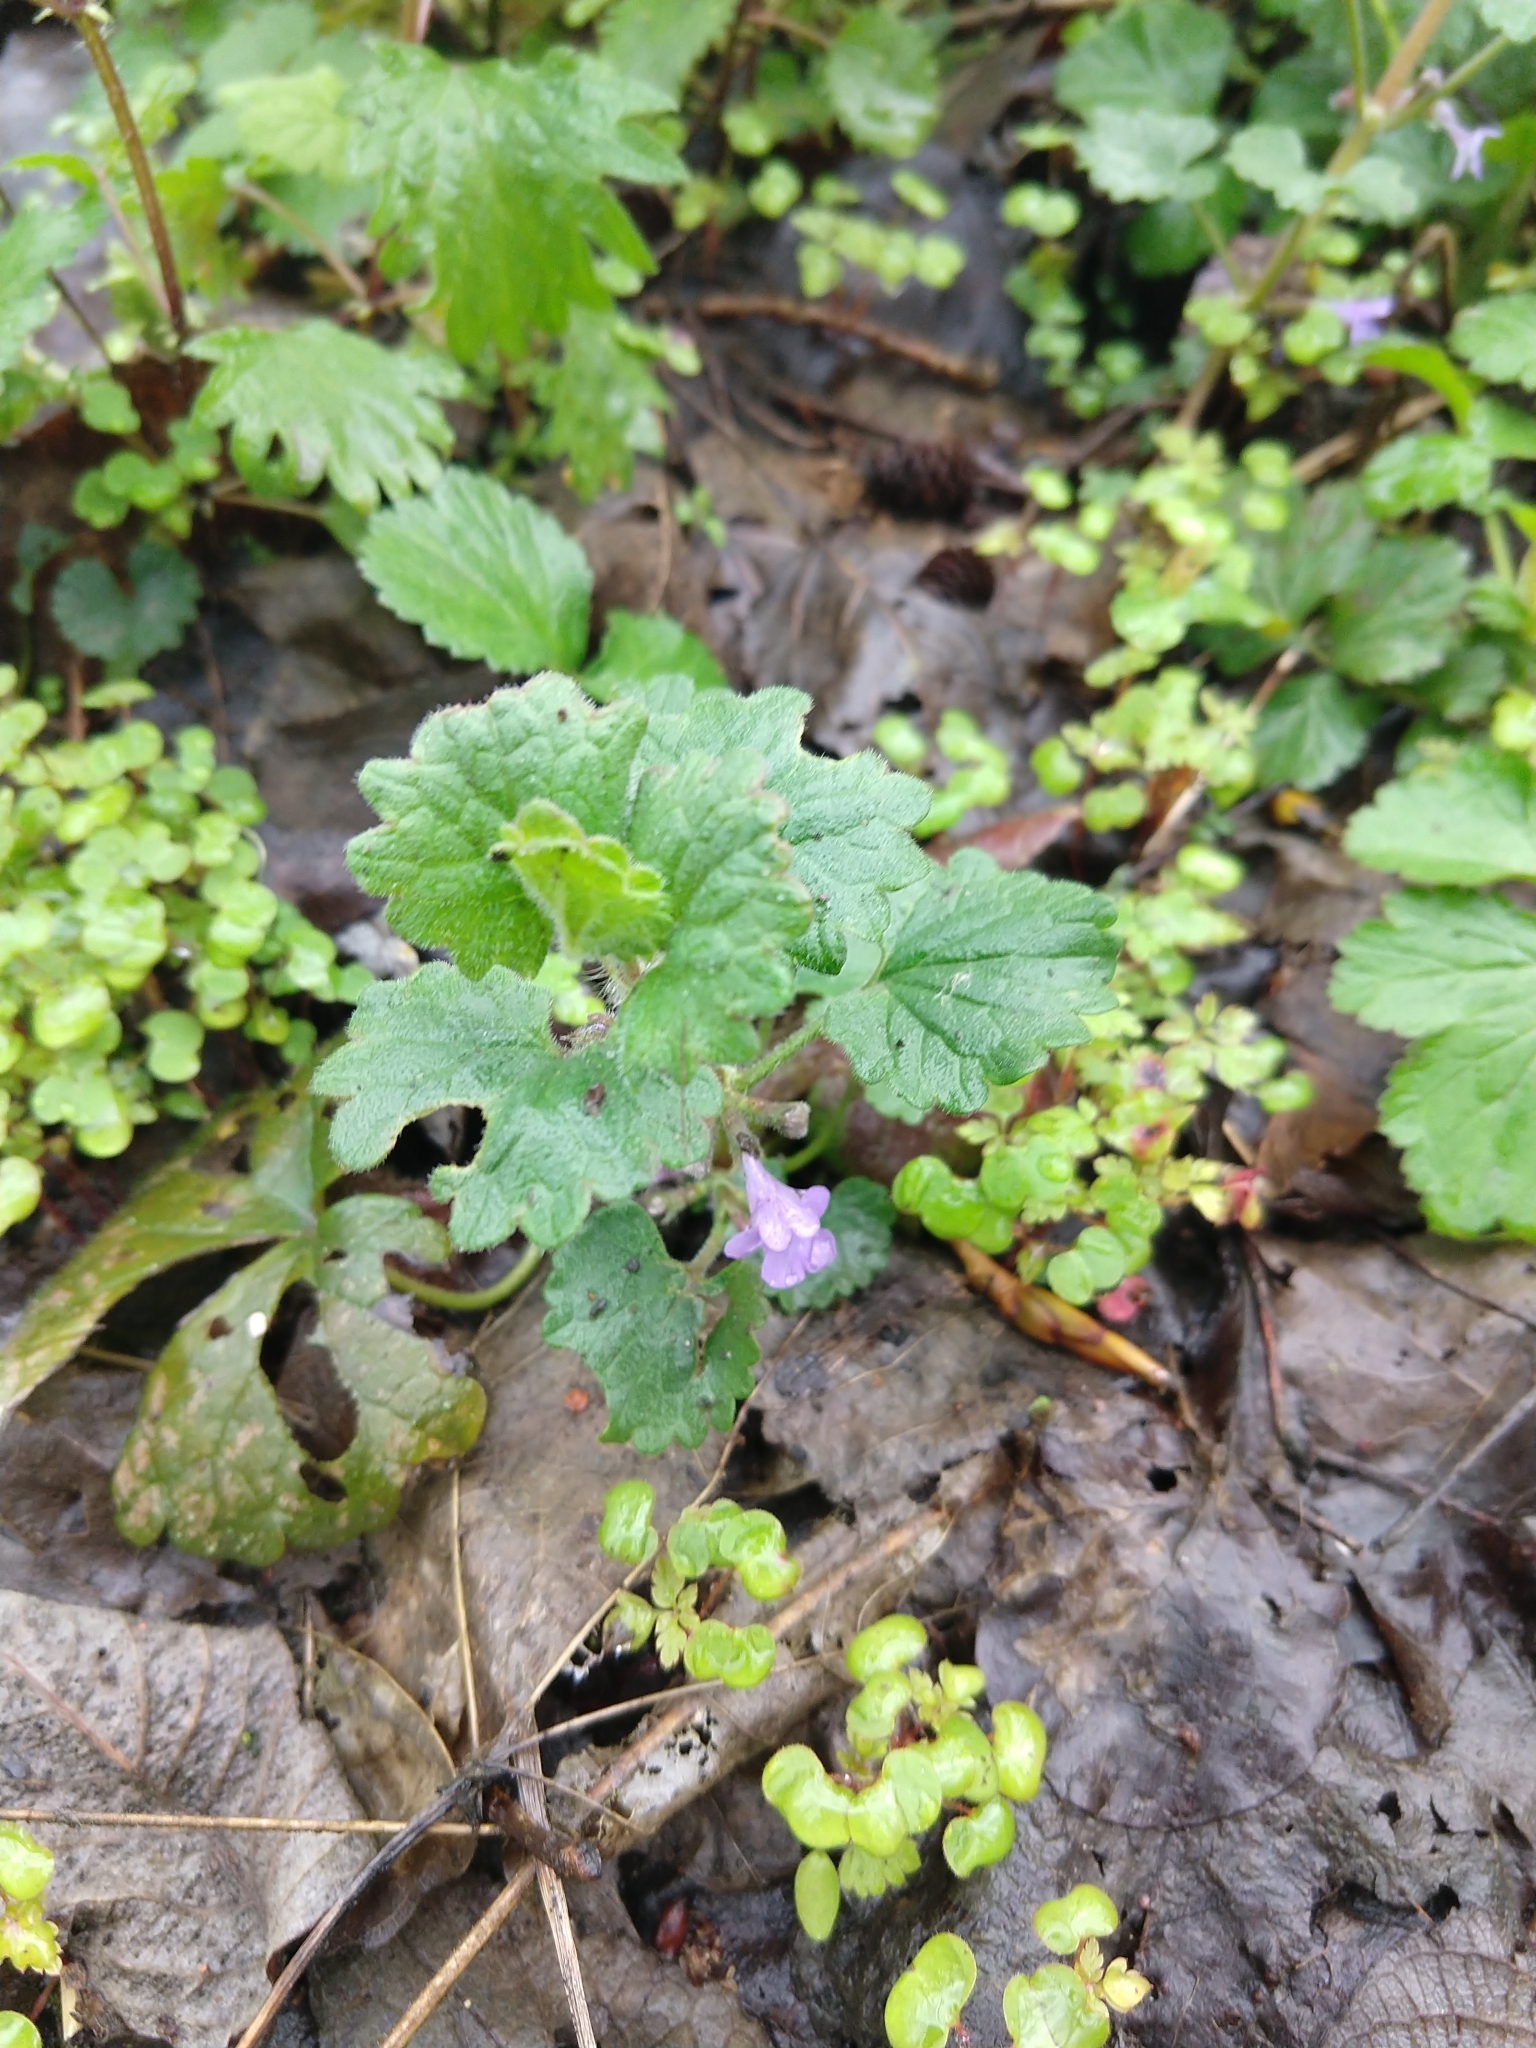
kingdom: Plantae
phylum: Tracheophyta
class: Magnoliopsida
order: Lamiales
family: Lamiaceae
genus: Glechoma
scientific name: Glechoma hederacea
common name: Ground ivy
